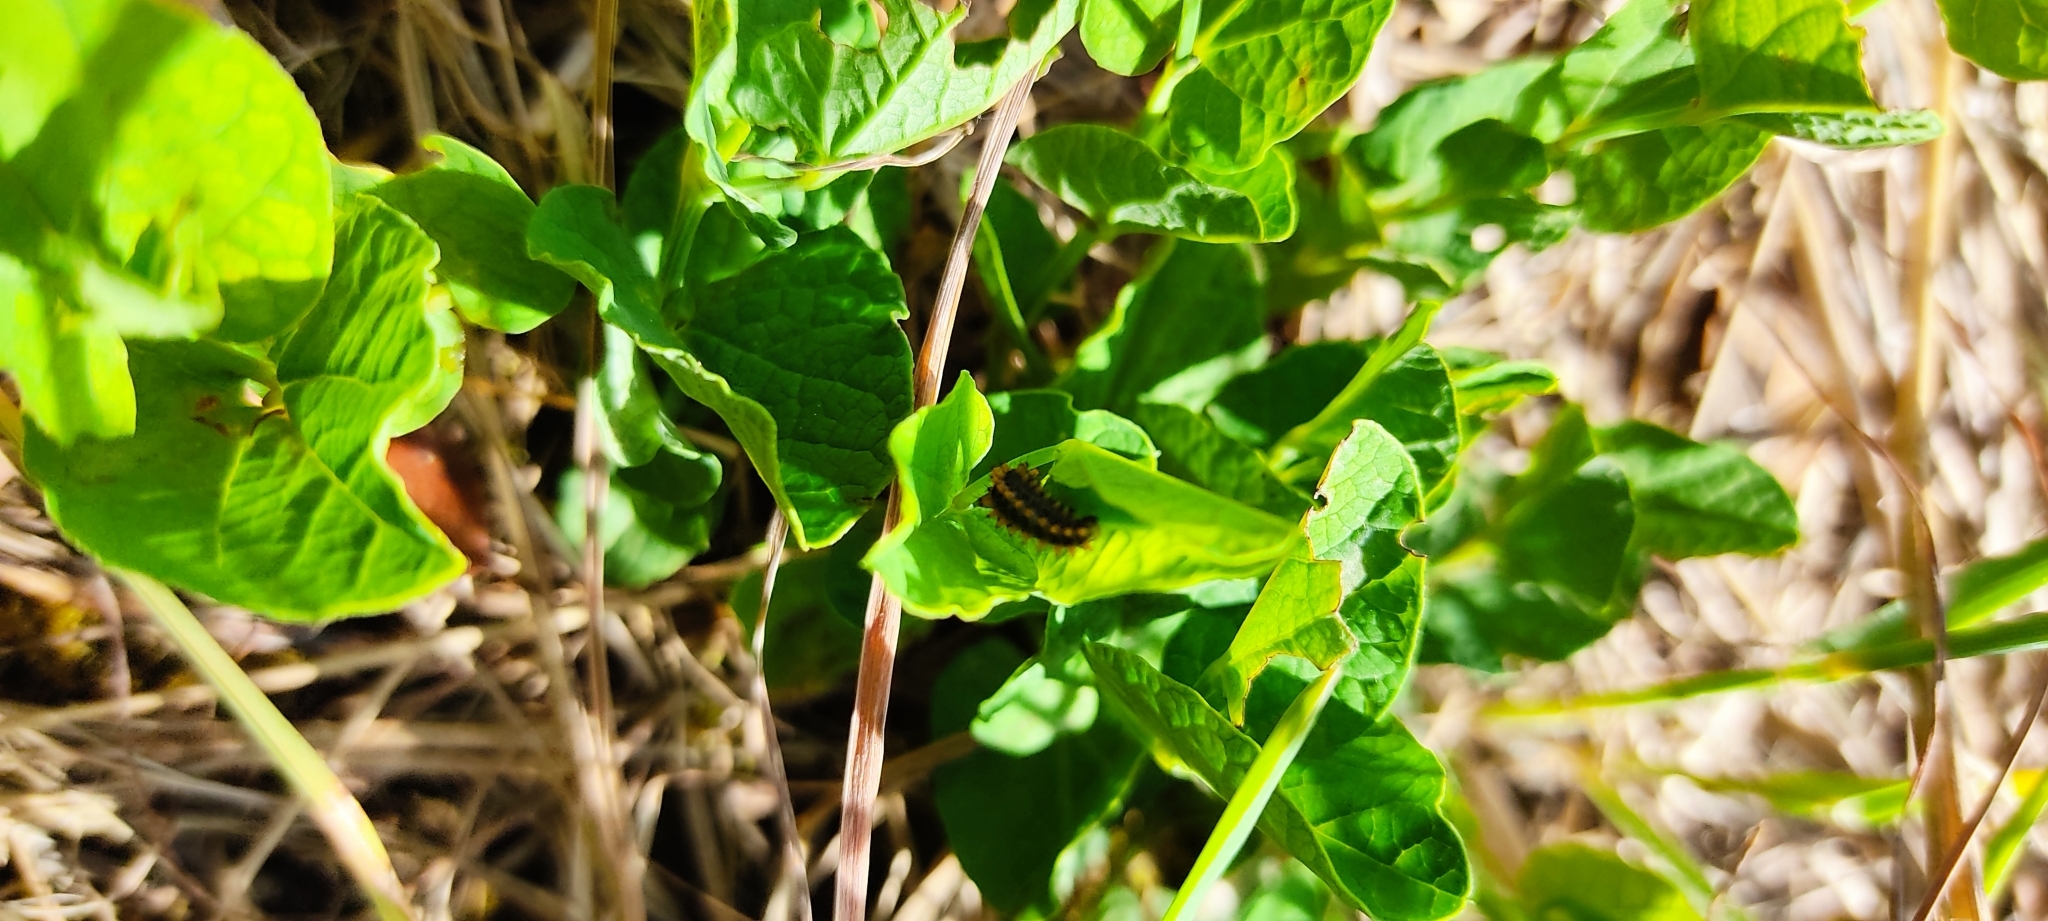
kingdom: Animalia
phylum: Arthropoda
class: Insecta
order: Lepidoptera
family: Papilionidae
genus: Zerynthia
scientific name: Zerynthia polyxena
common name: Southern festoon
